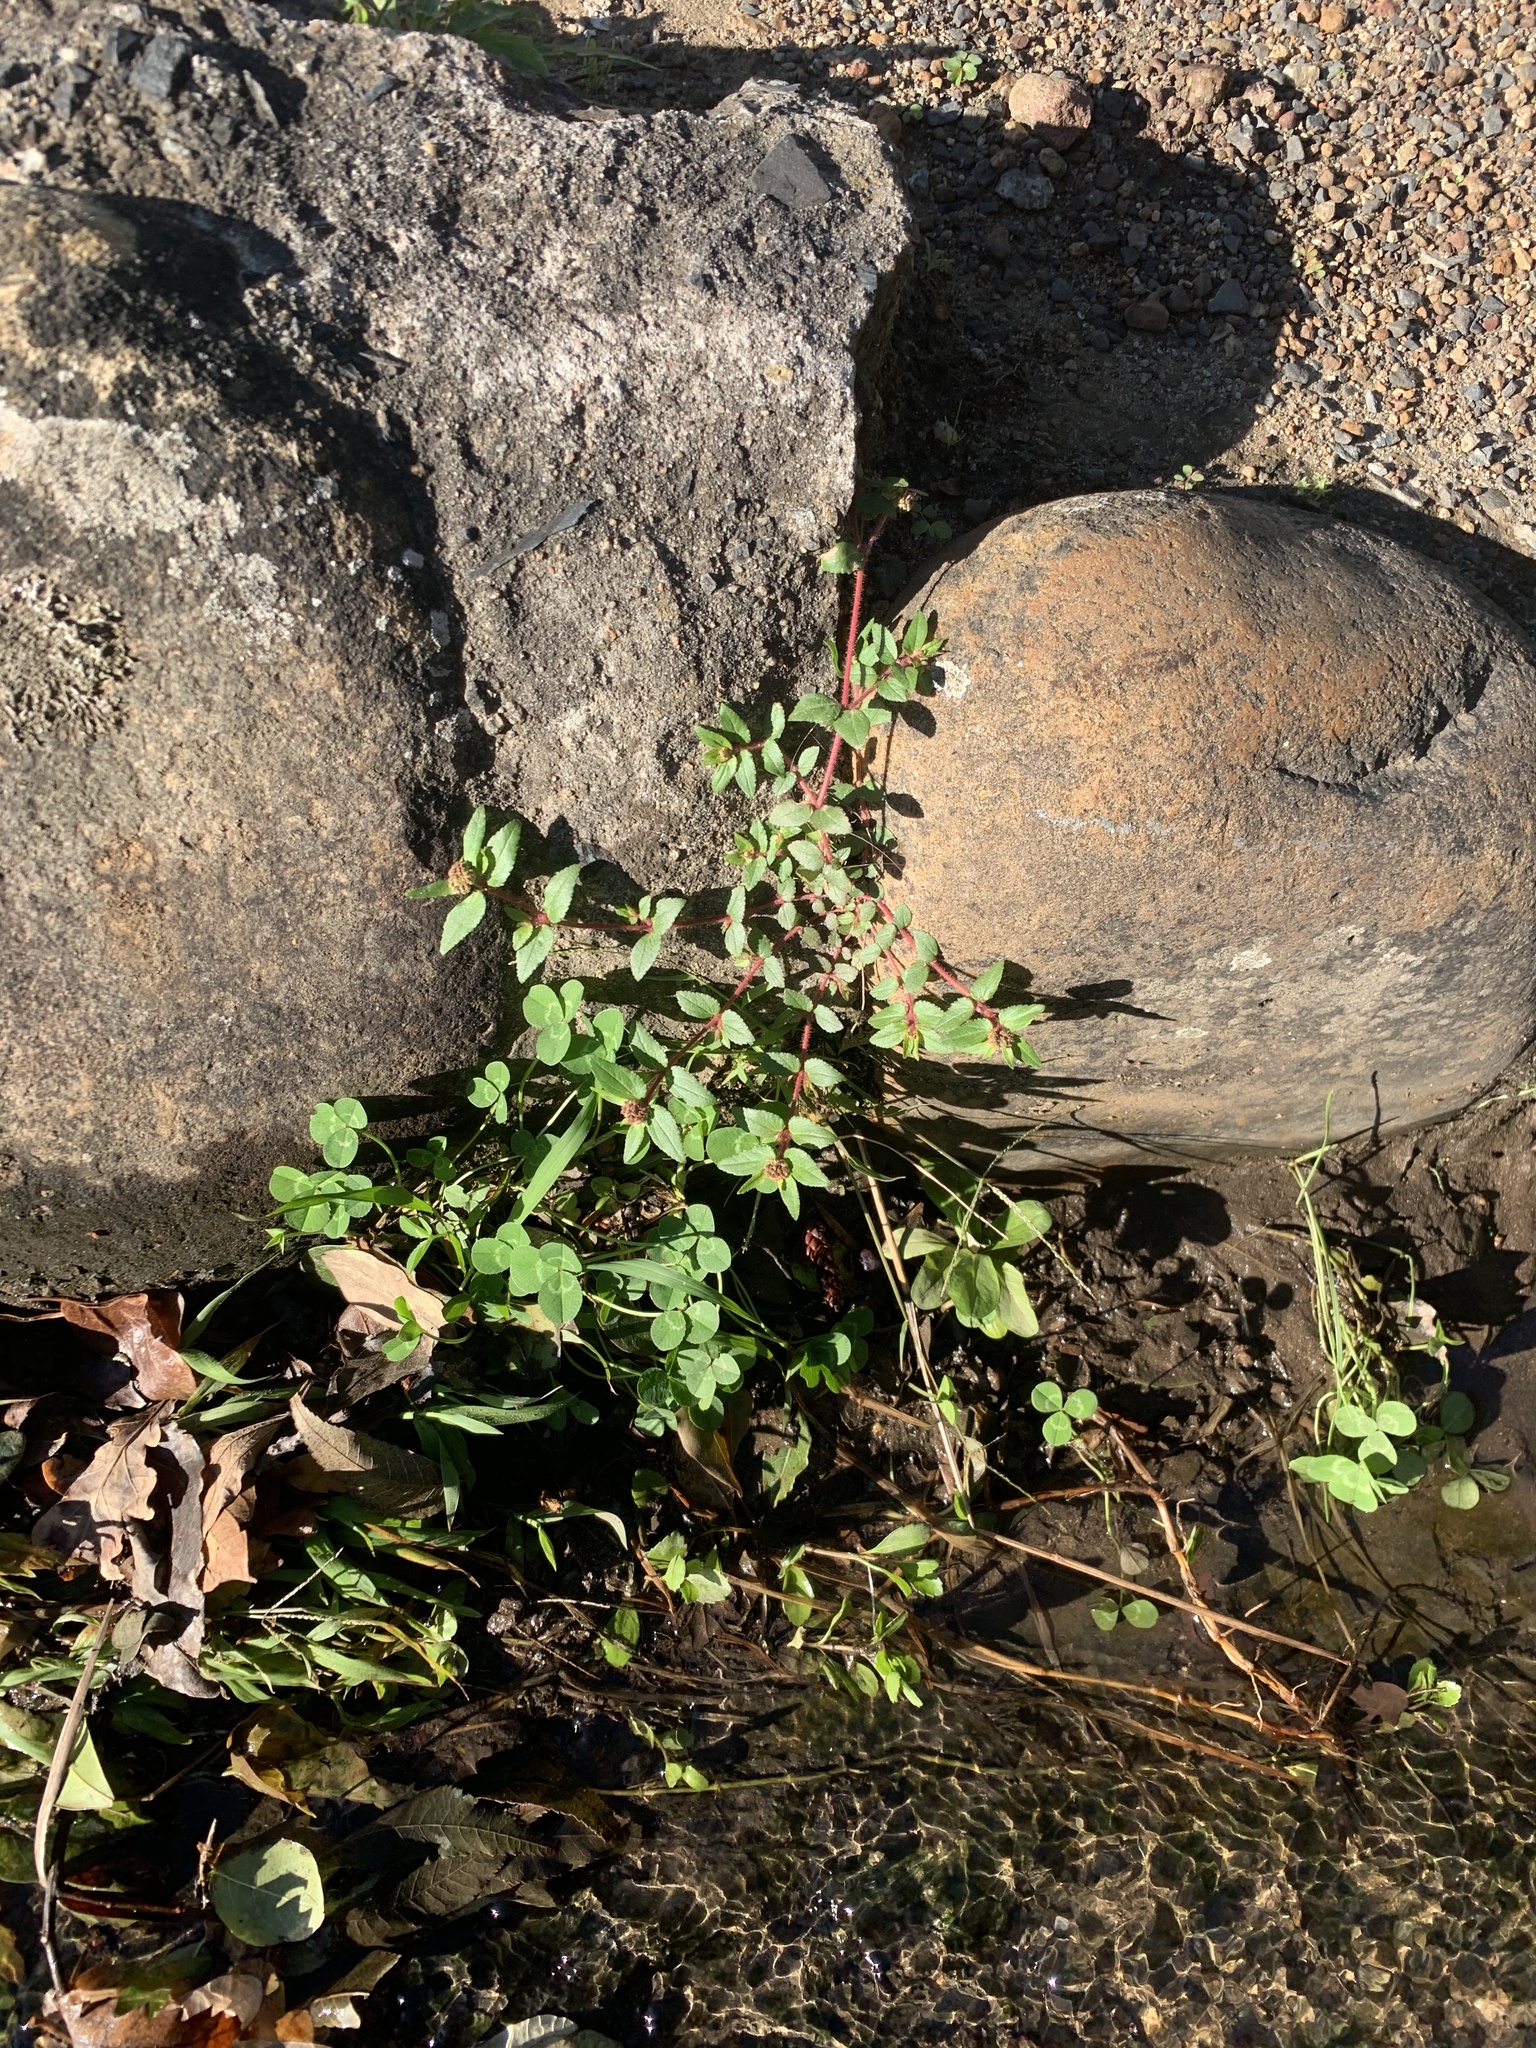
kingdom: Plantae
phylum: Tracheophyta
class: Magnoliopsida
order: Malpighiales
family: Euphorbiaceae
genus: Euphorbia
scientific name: Euphorbia ophthalmica
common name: Florida hammock sandmat
